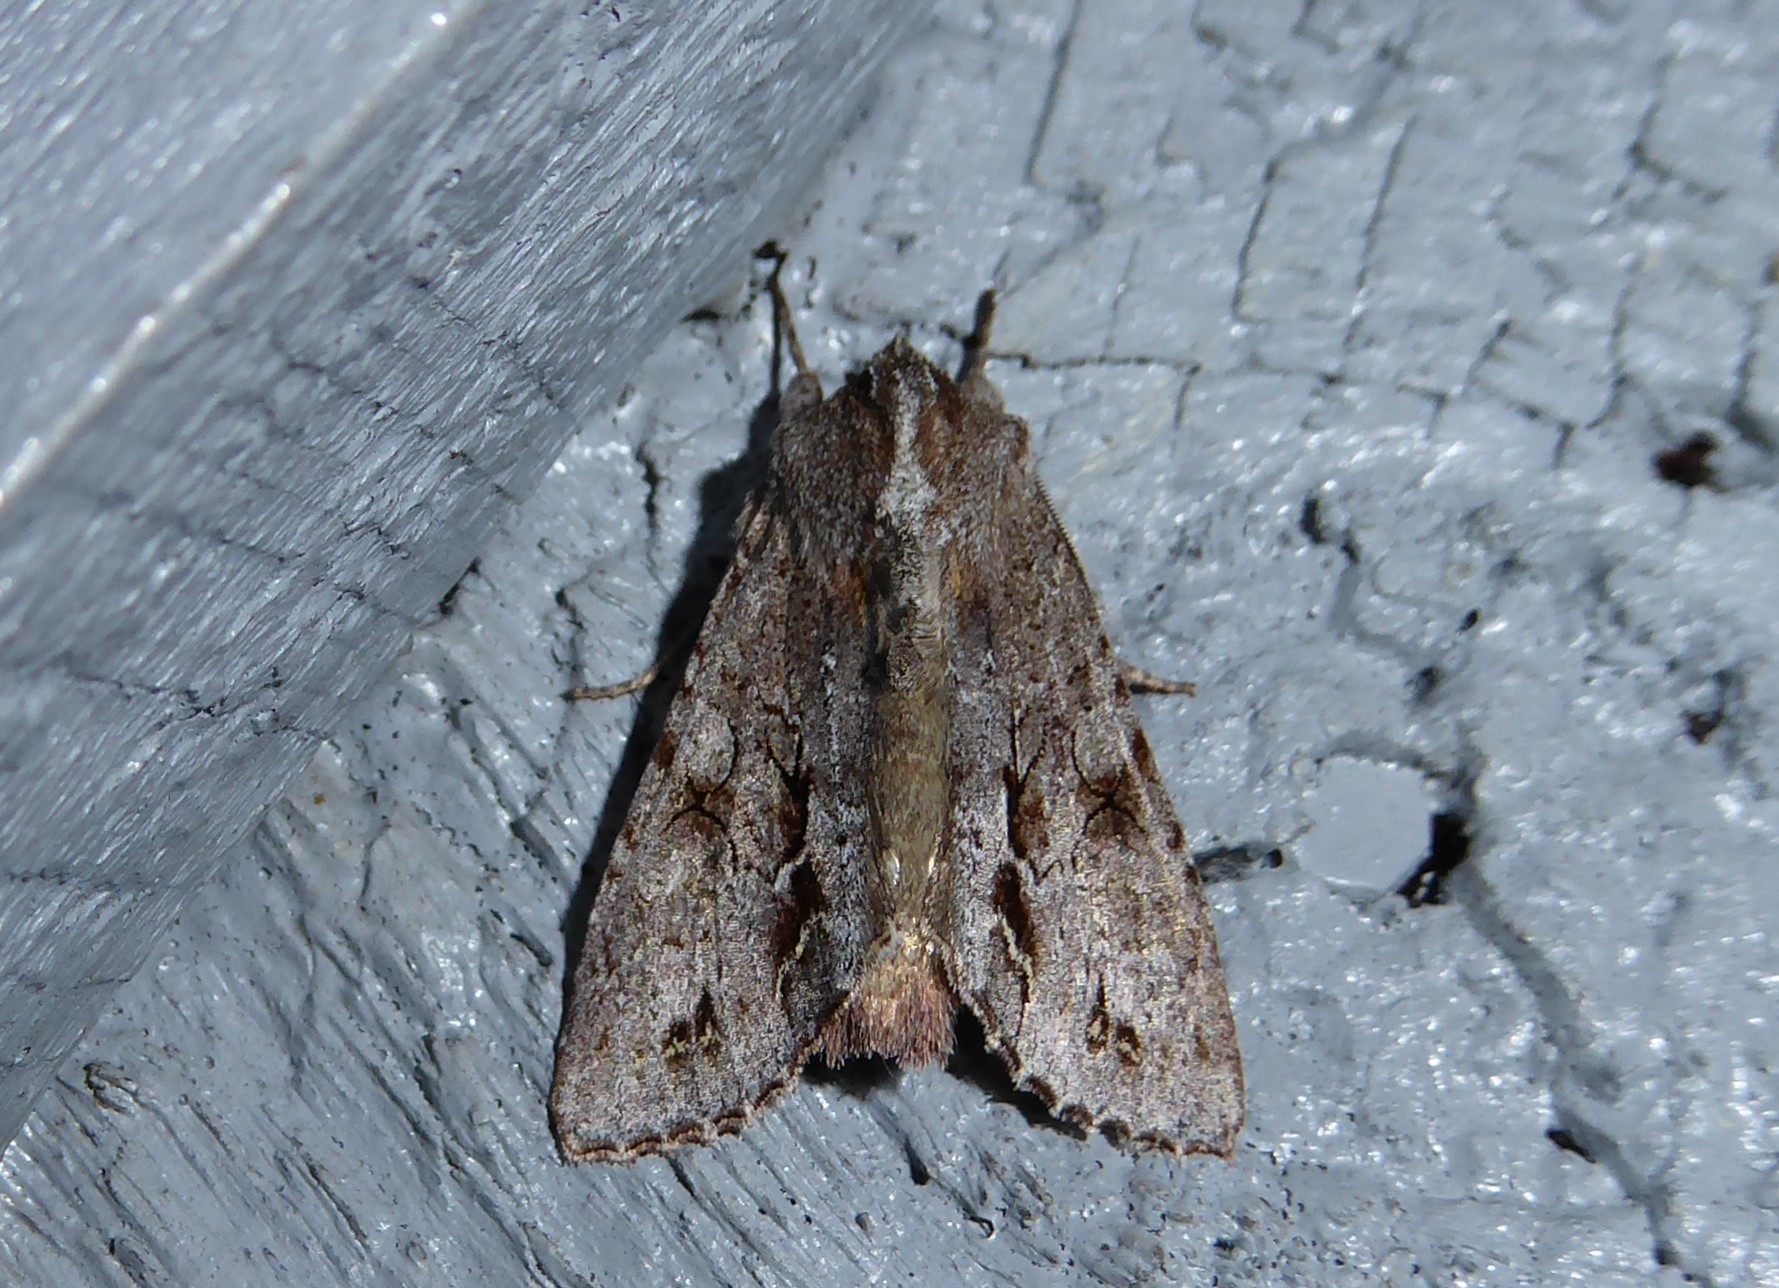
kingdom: Animalia
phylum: Arthropoda
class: Insecta
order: Lepidoptera
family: Noctuidae
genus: Ichneutica
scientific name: Ichneutica
